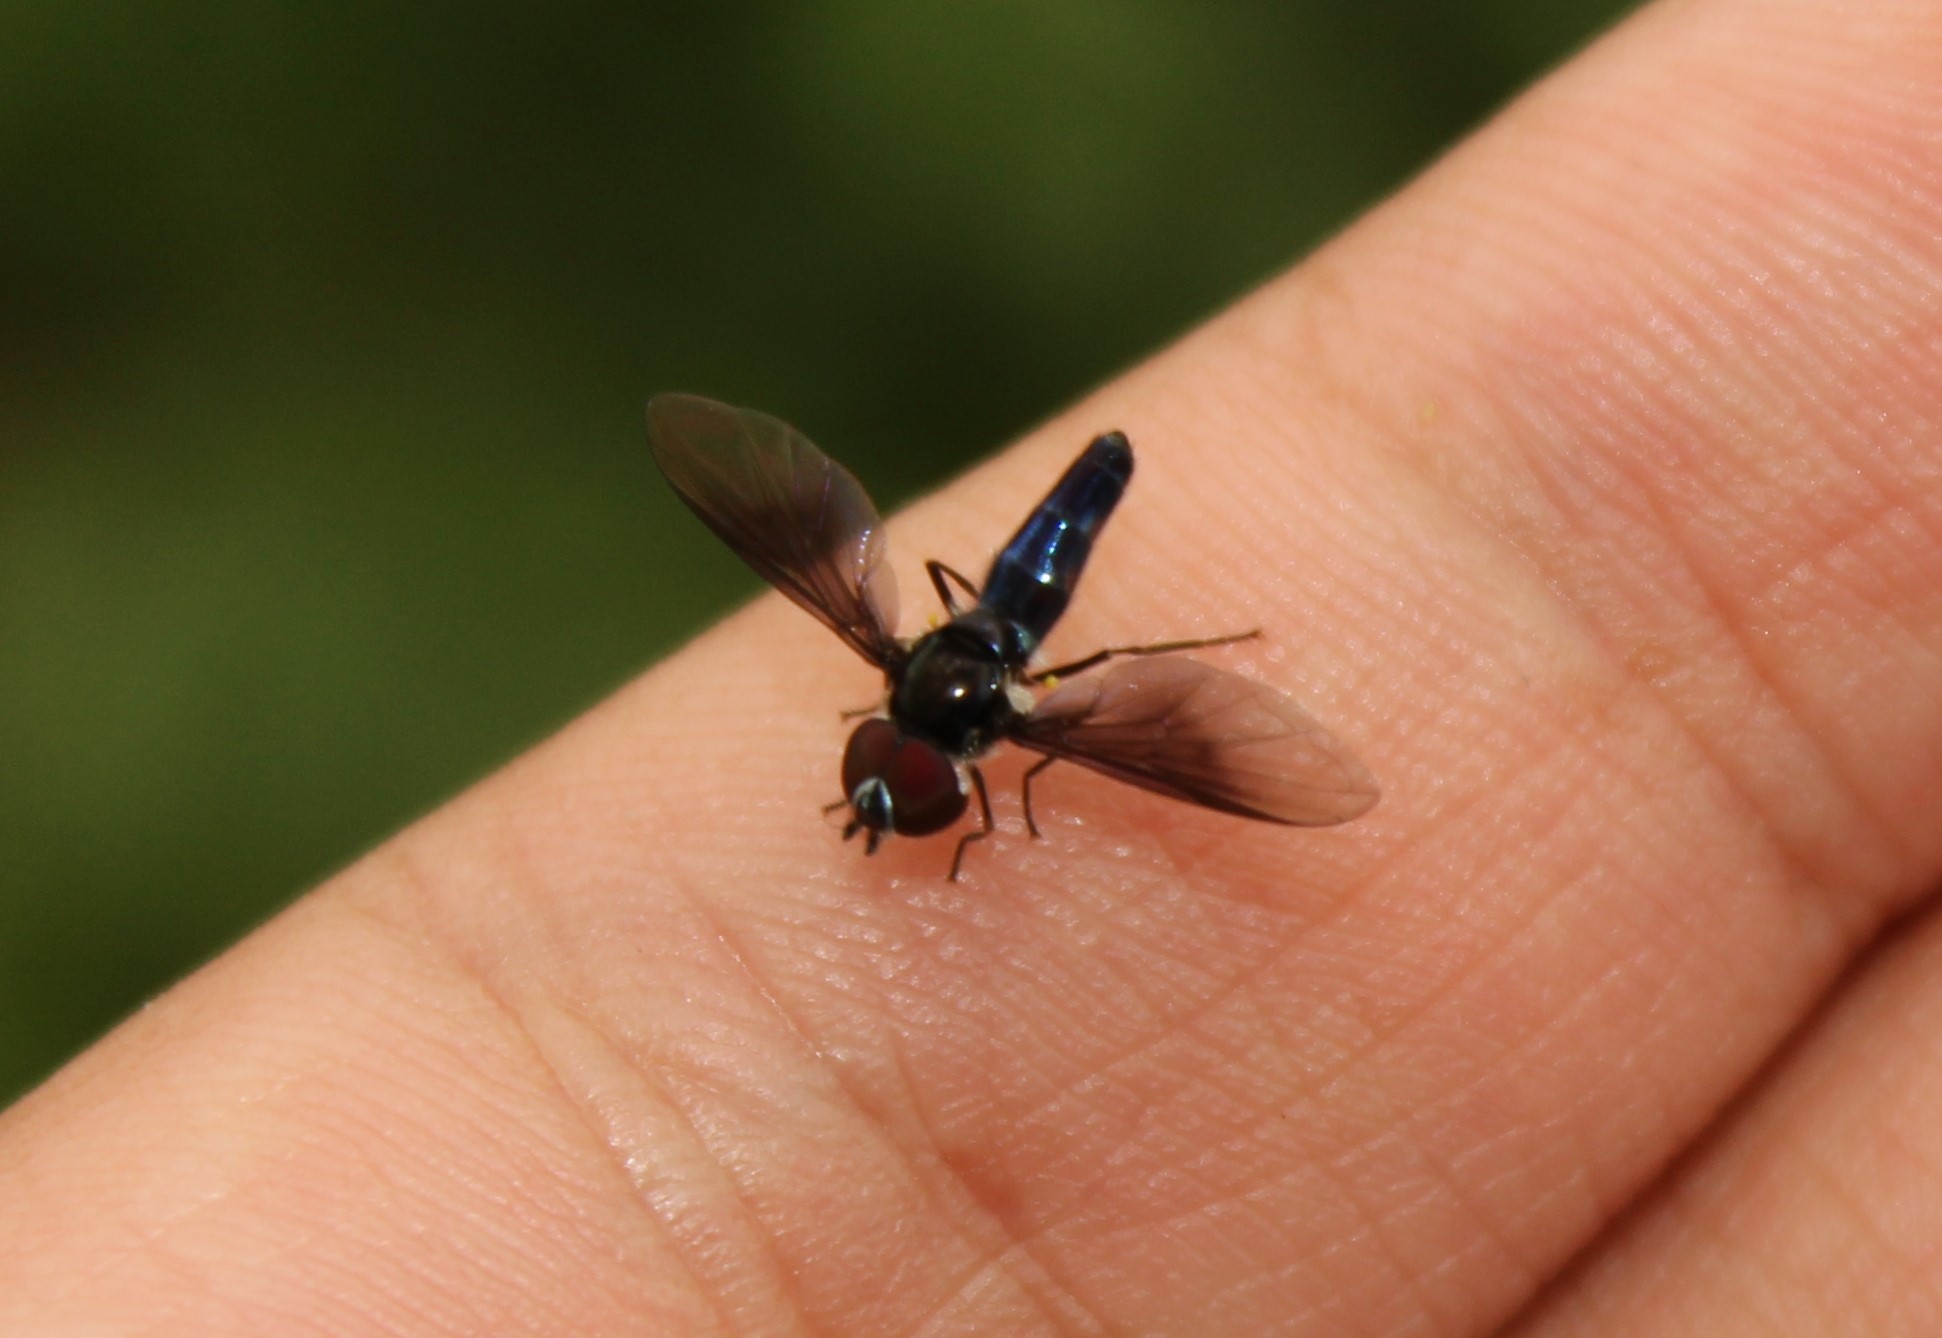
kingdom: Animalia
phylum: Arthropoda
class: Insecta
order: Diptera
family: Syrphidae
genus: Ocyptamus
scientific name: Ocyptamus dimidiatus
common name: Syrphid fly
